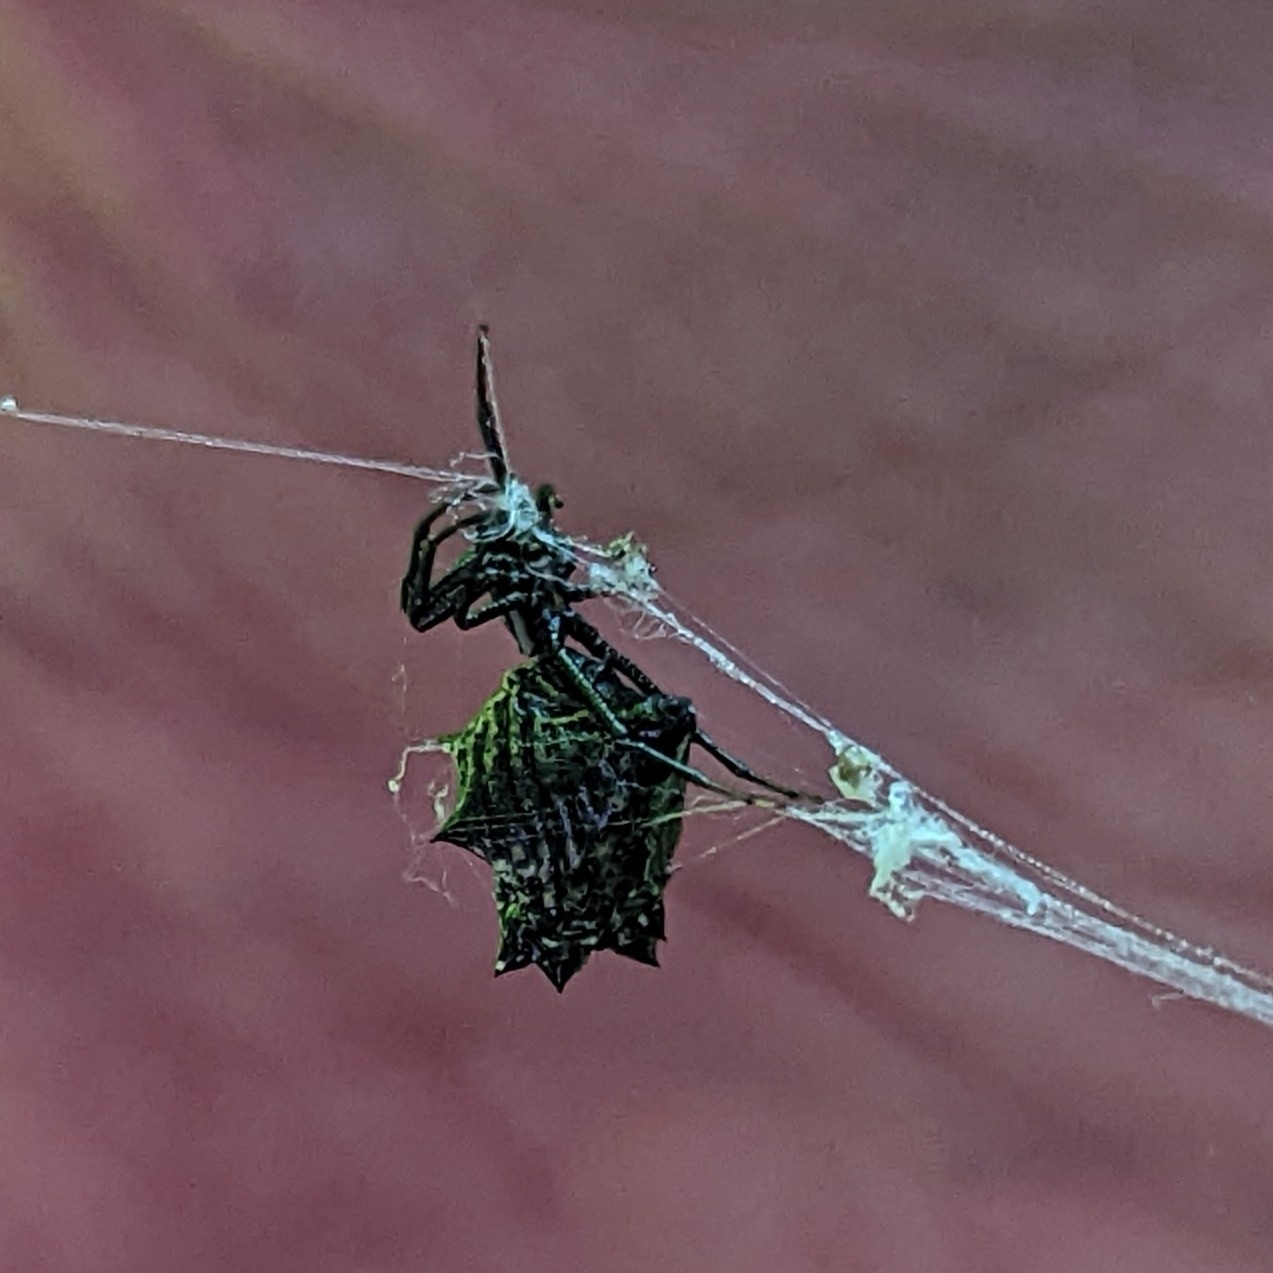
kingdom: Animalia
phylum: Arthropoda
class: Arachnida
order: Araneae
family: Araneidae
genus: Micrathena
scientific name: Micrathena gracilis
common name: Orb weavers
